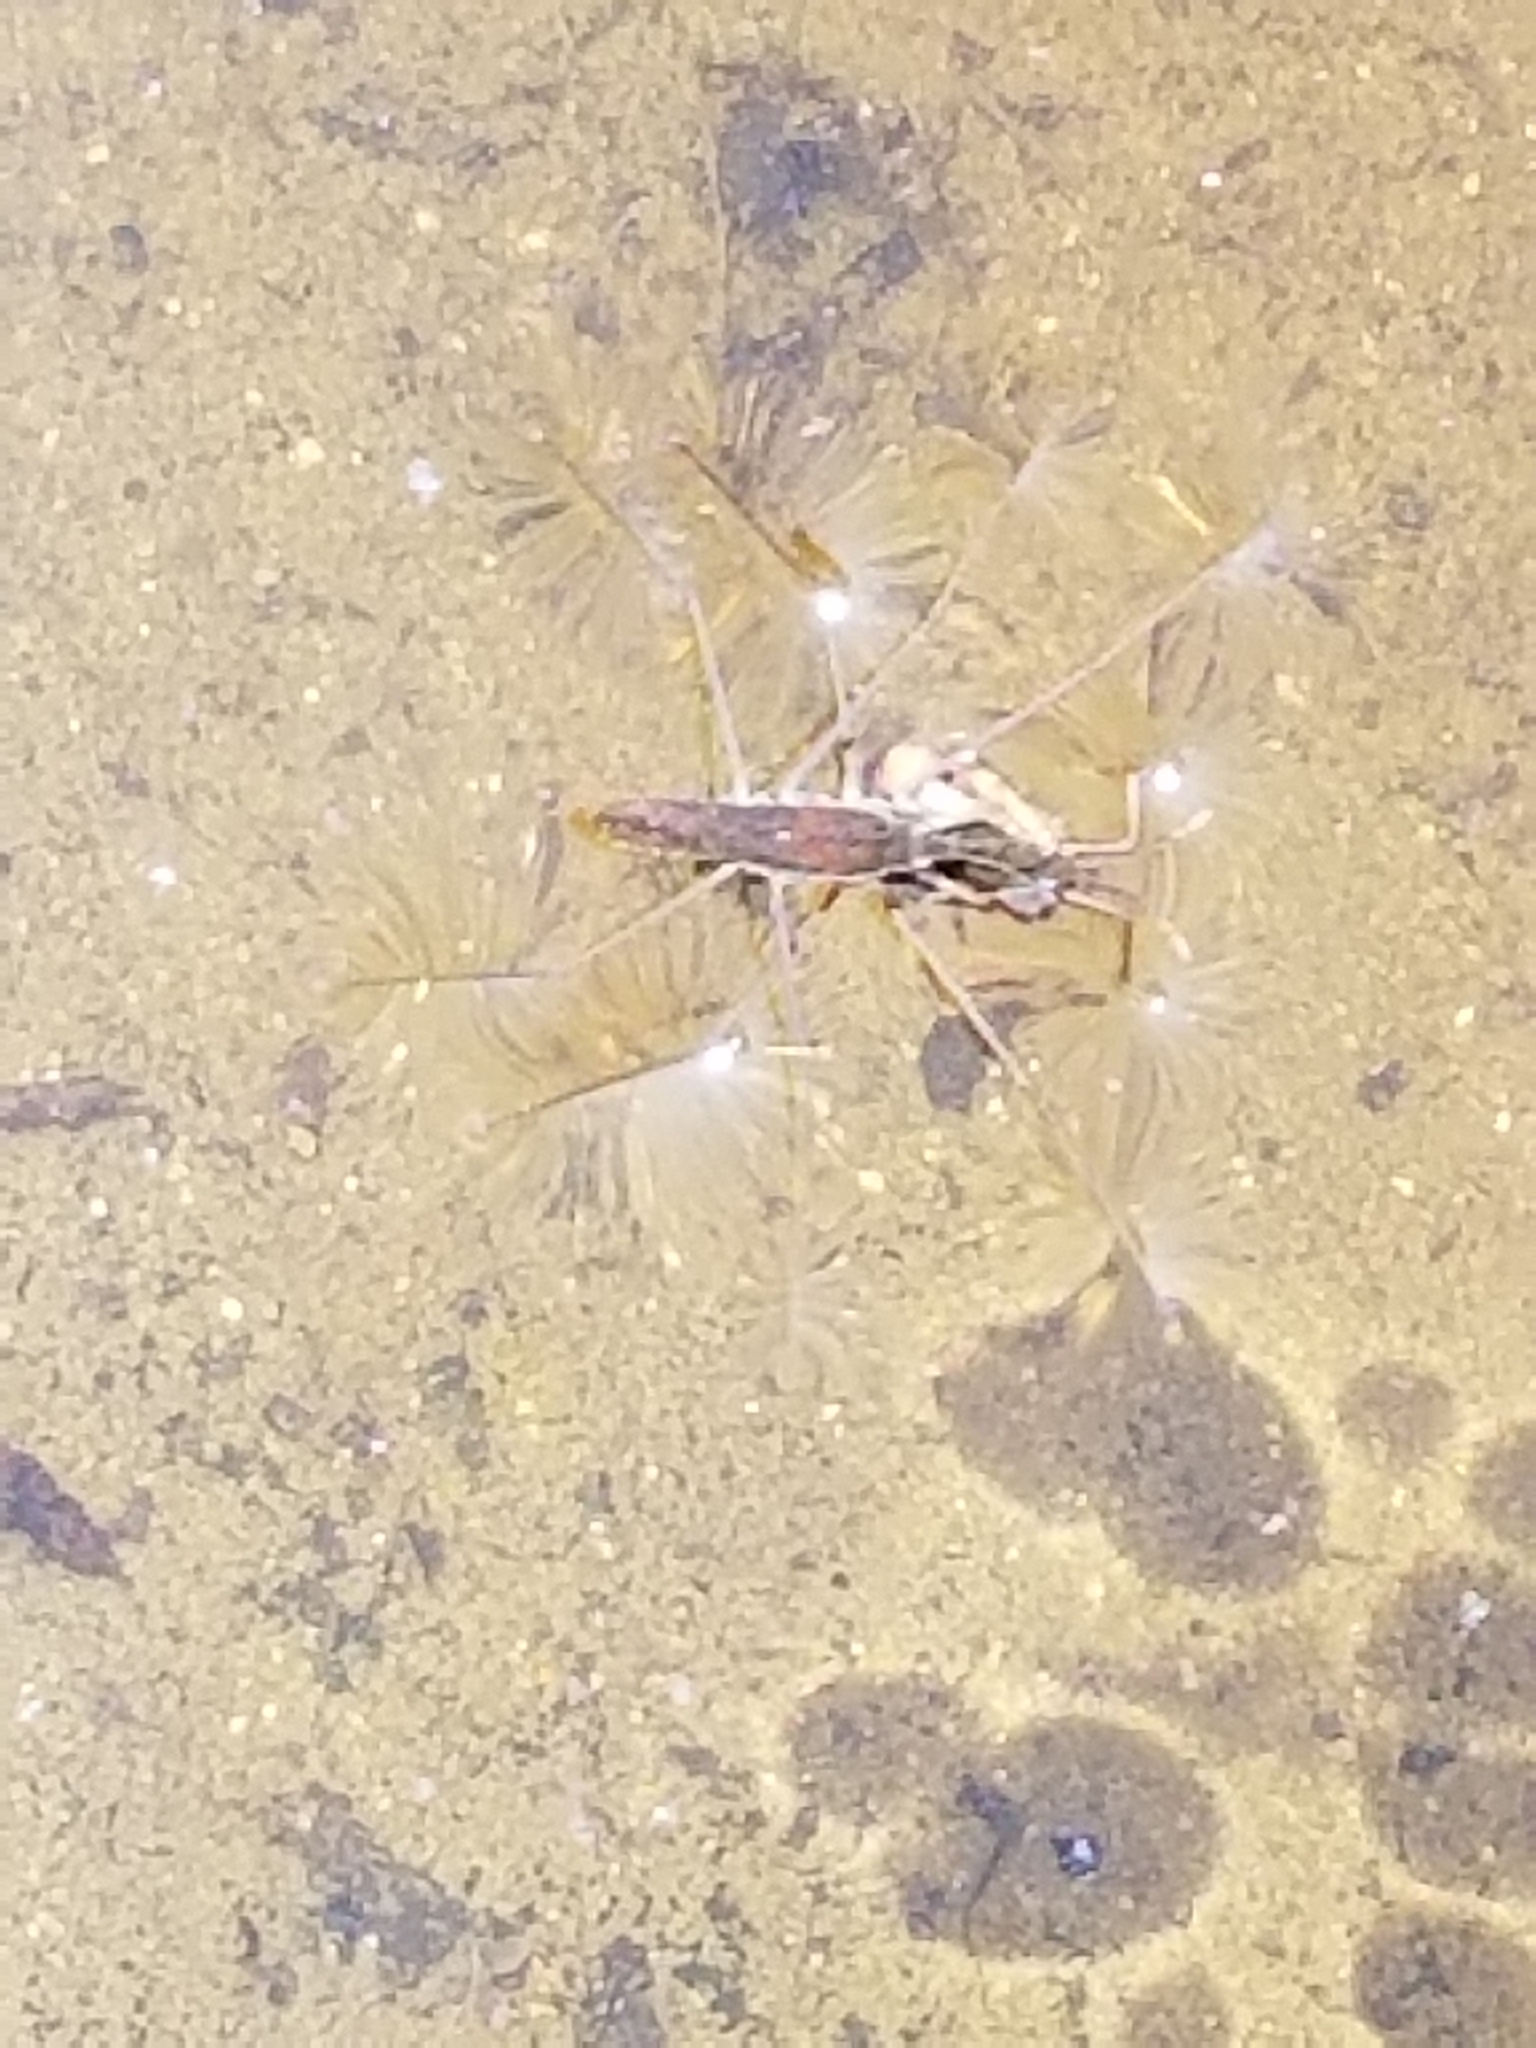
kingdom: Animalia
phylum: Arthropoda
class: Insecta
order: Hemiptera
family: Gerridae
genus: Aquarius
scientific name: Aquarius remigis
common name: Common water strider
